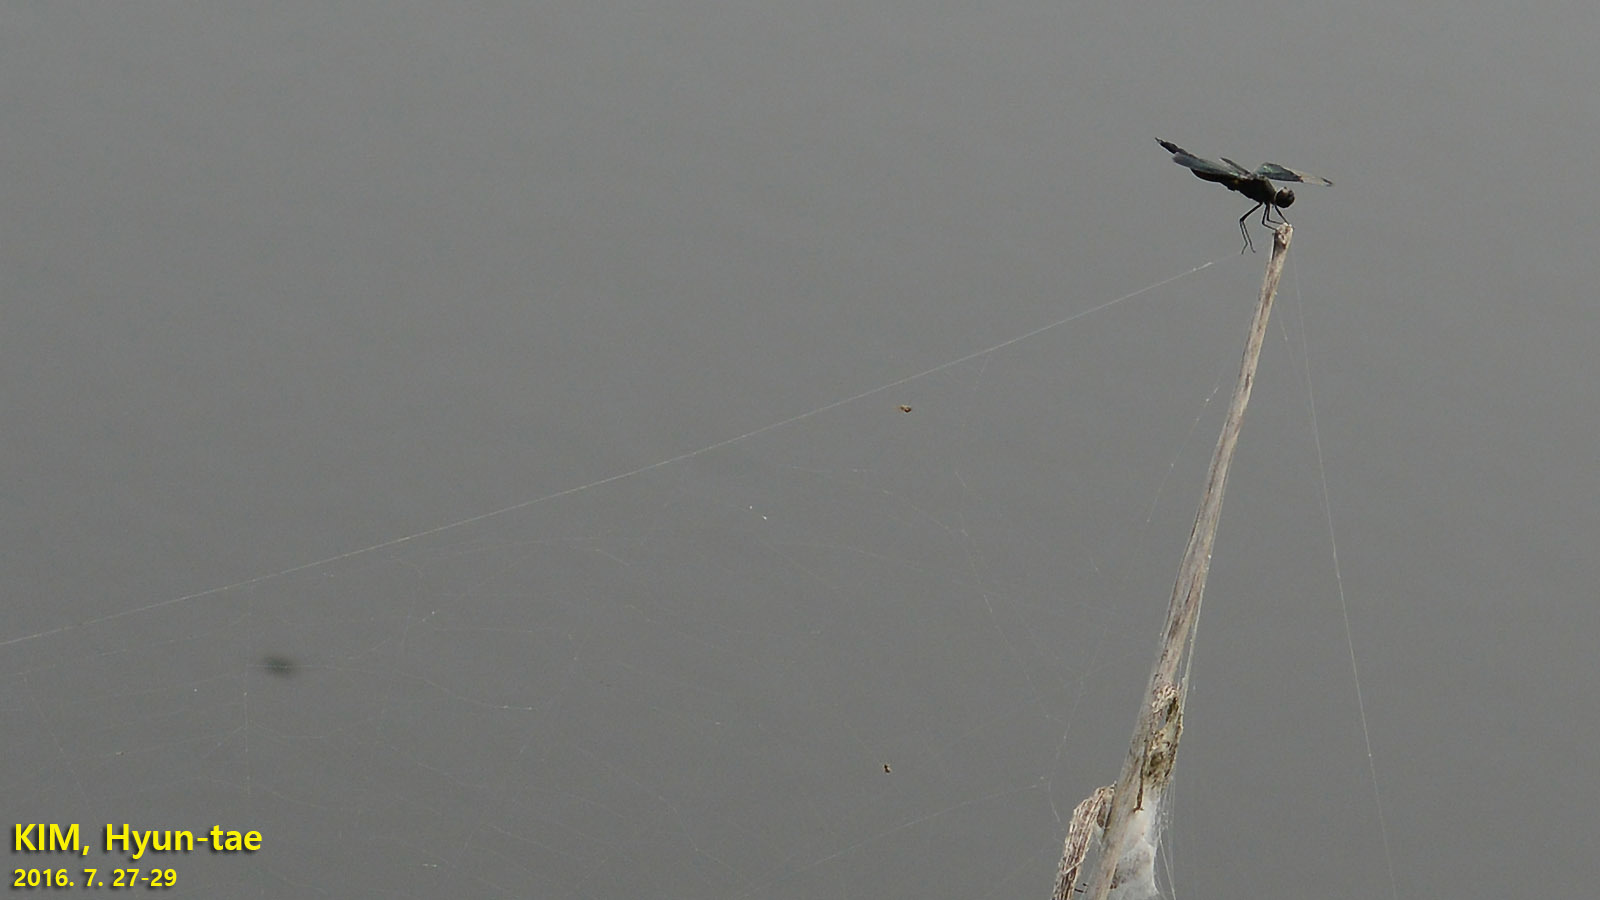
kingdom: Animalia
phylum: Arthropoda
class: Insecta
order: Odonata
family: Libellulidae
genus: Rhyothemis
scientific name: Rhyothemis fuliginosa
